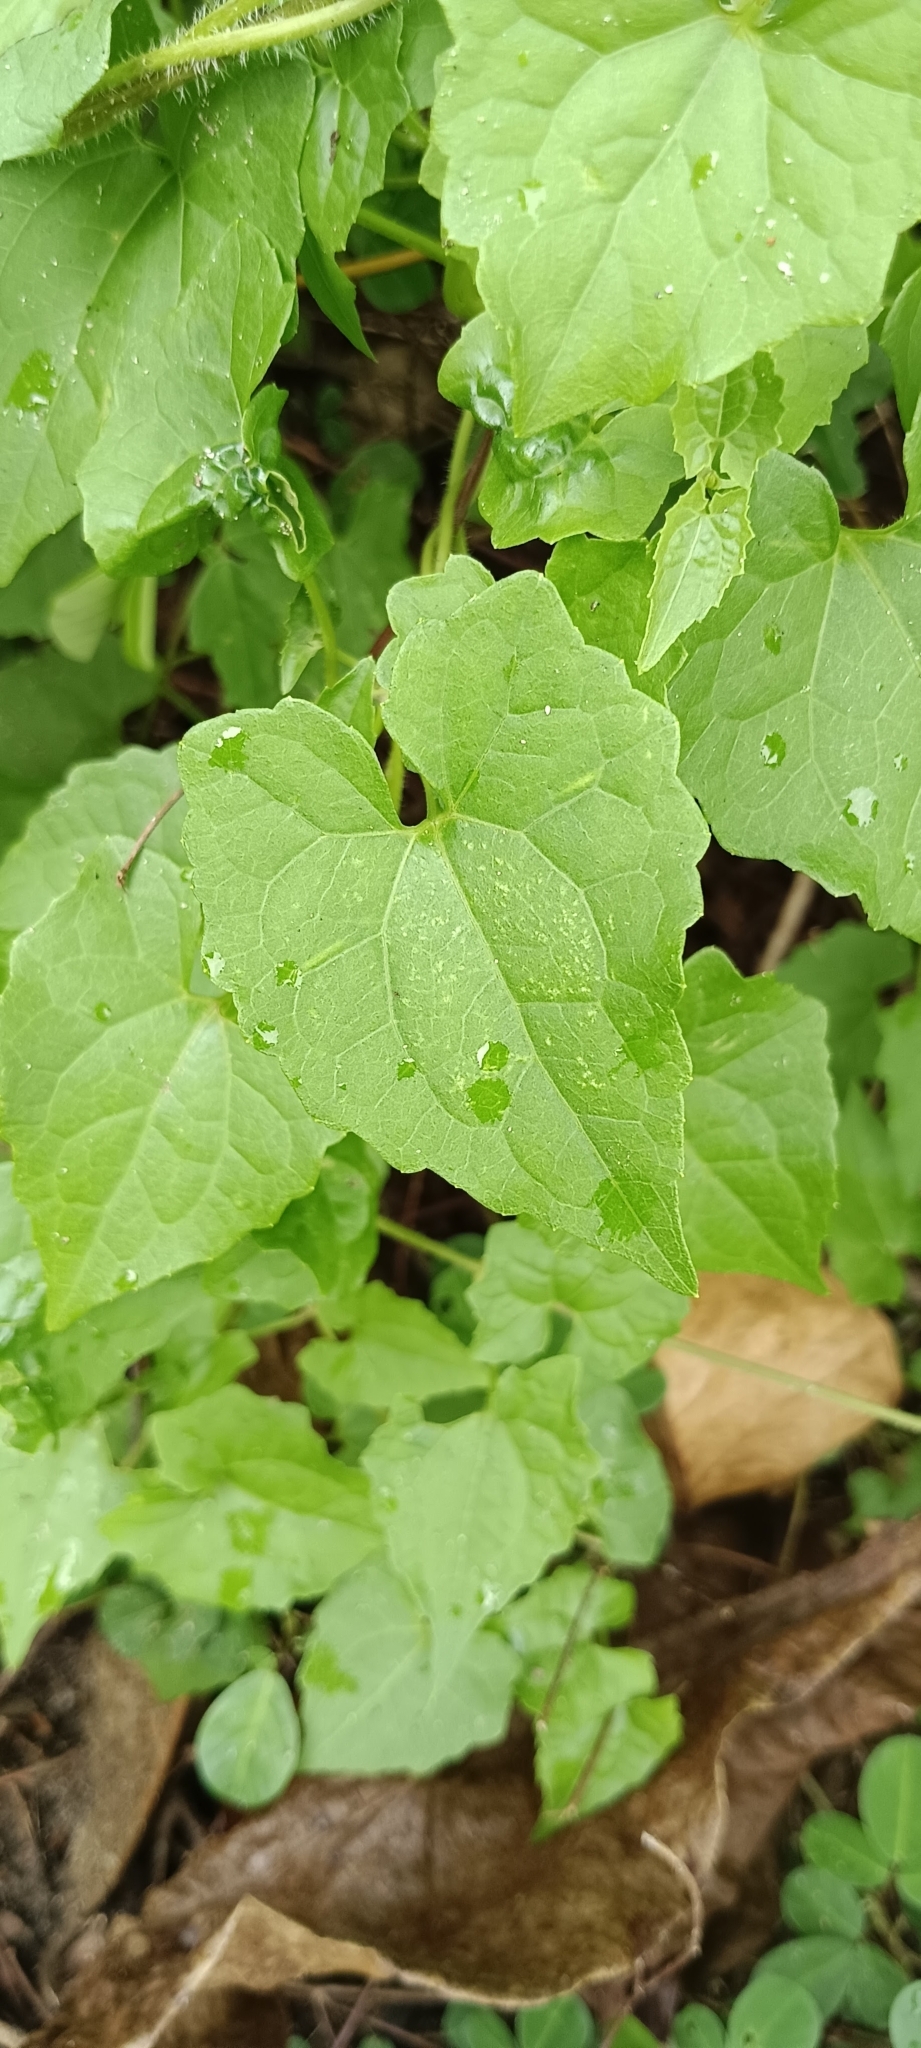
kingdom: Plantae
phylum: Tracheophyta
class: Magnoliopsida
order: Asterales
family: Asteraceae
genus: Mikania
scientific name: Mikania micrantha
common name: Mile-a-minute
